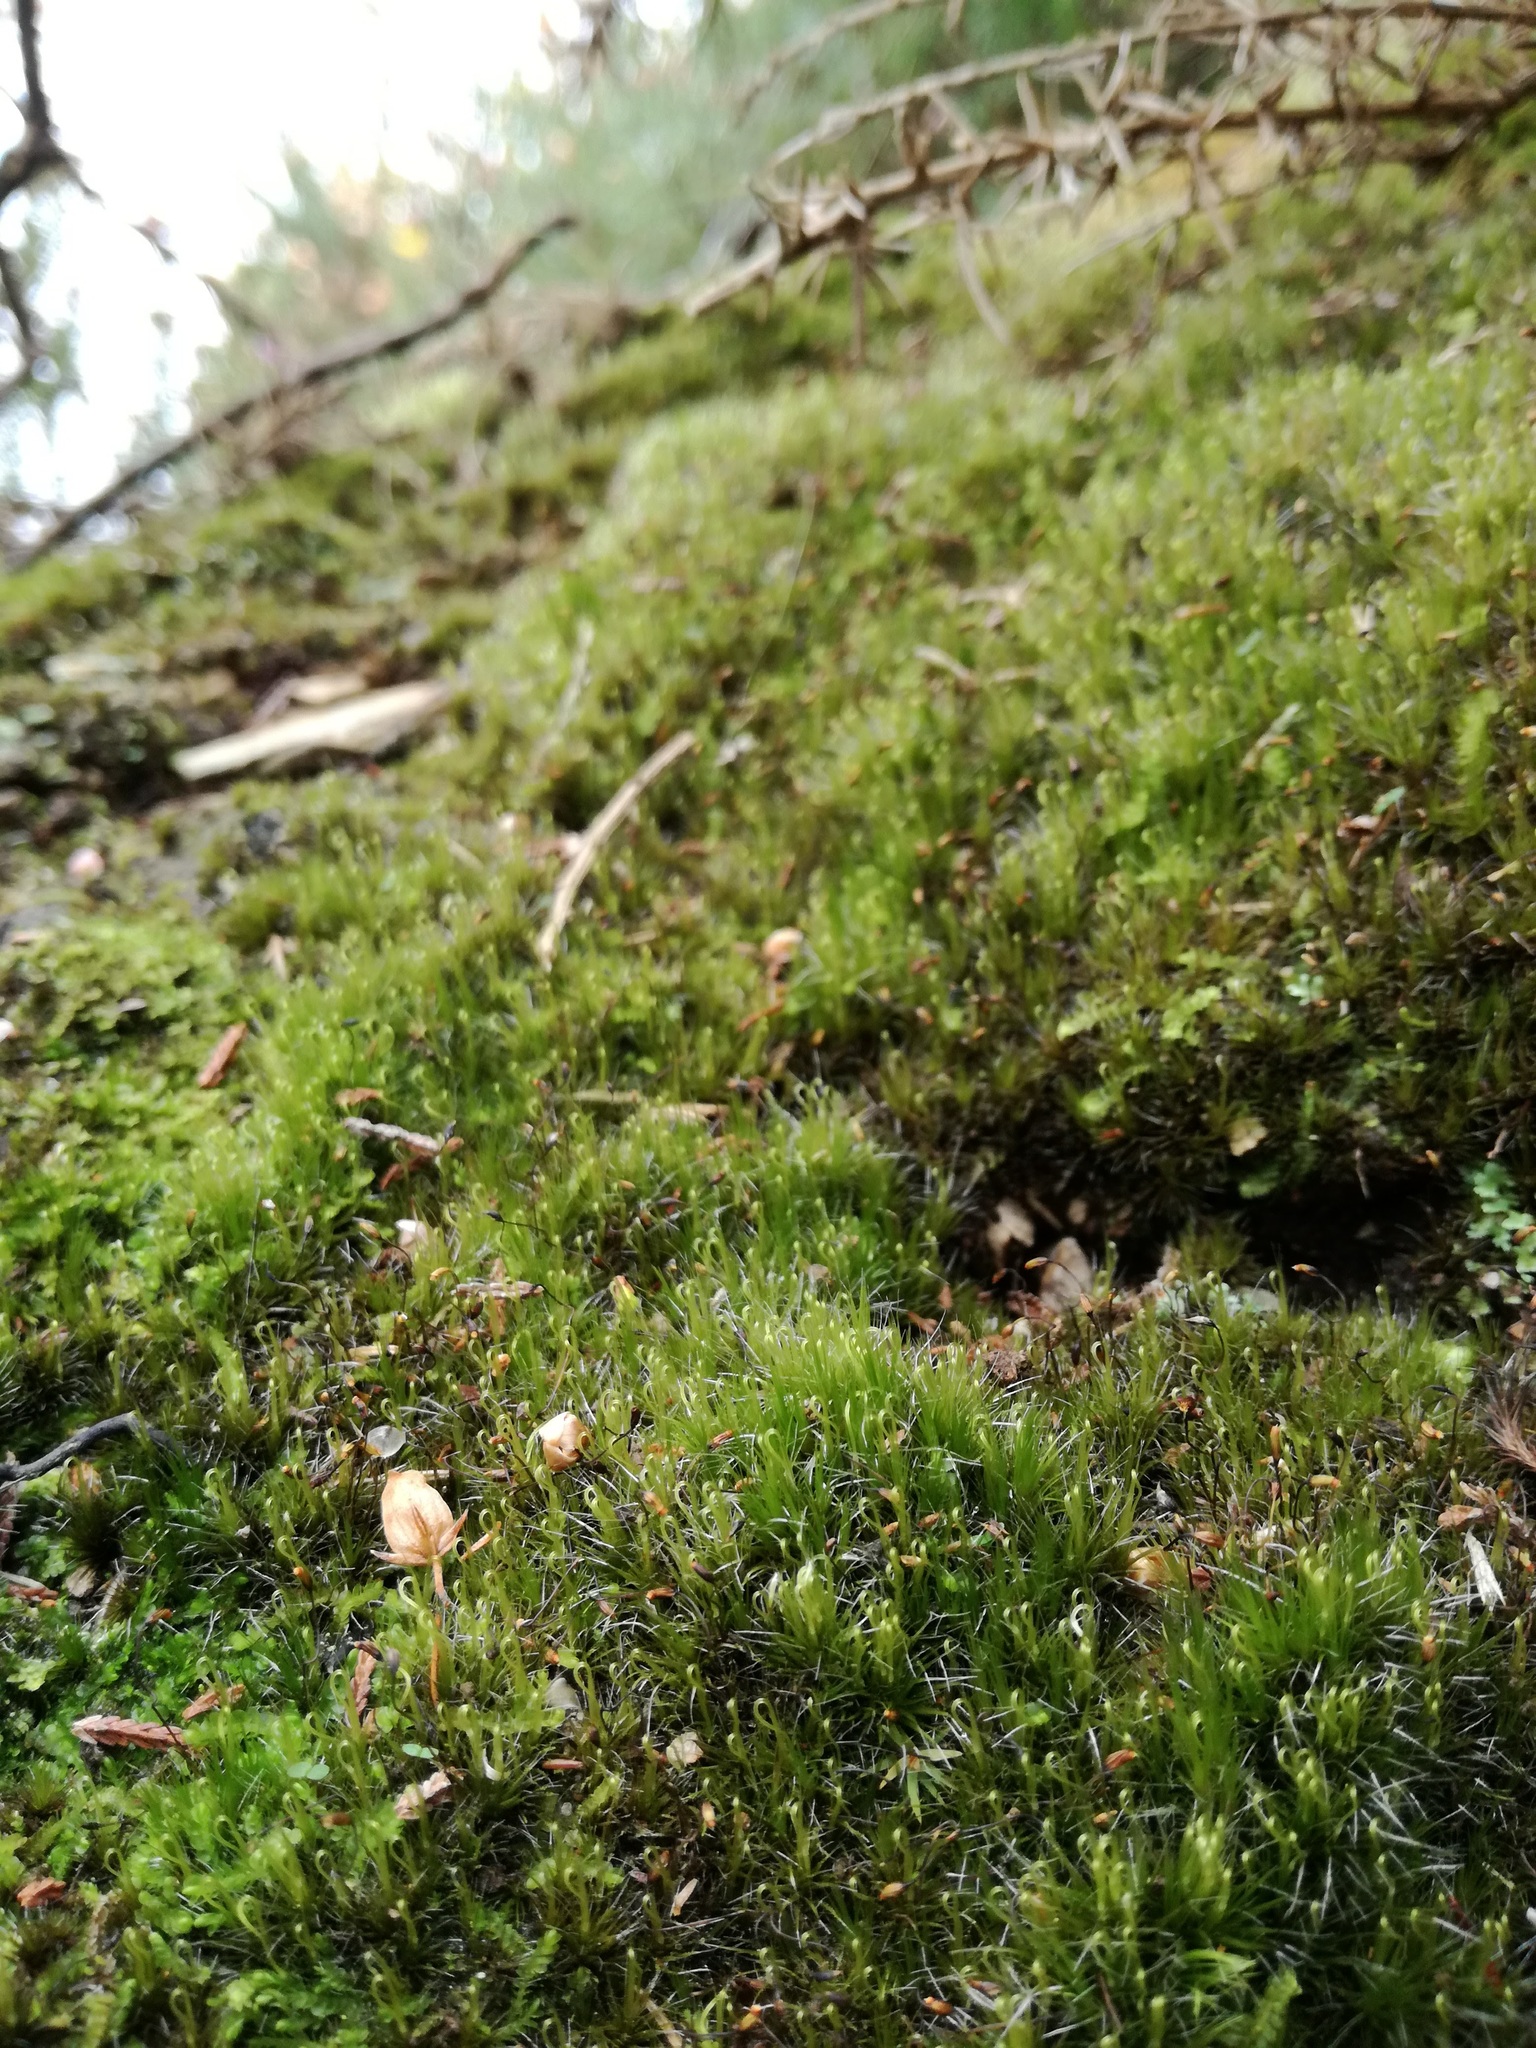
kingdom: Plantae
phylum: Bryophyta
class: Bryopsida
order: Dicranales
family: Leucobryaceae
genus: Campylopus
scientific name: Campylopus introflexus
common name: Heath star moss
